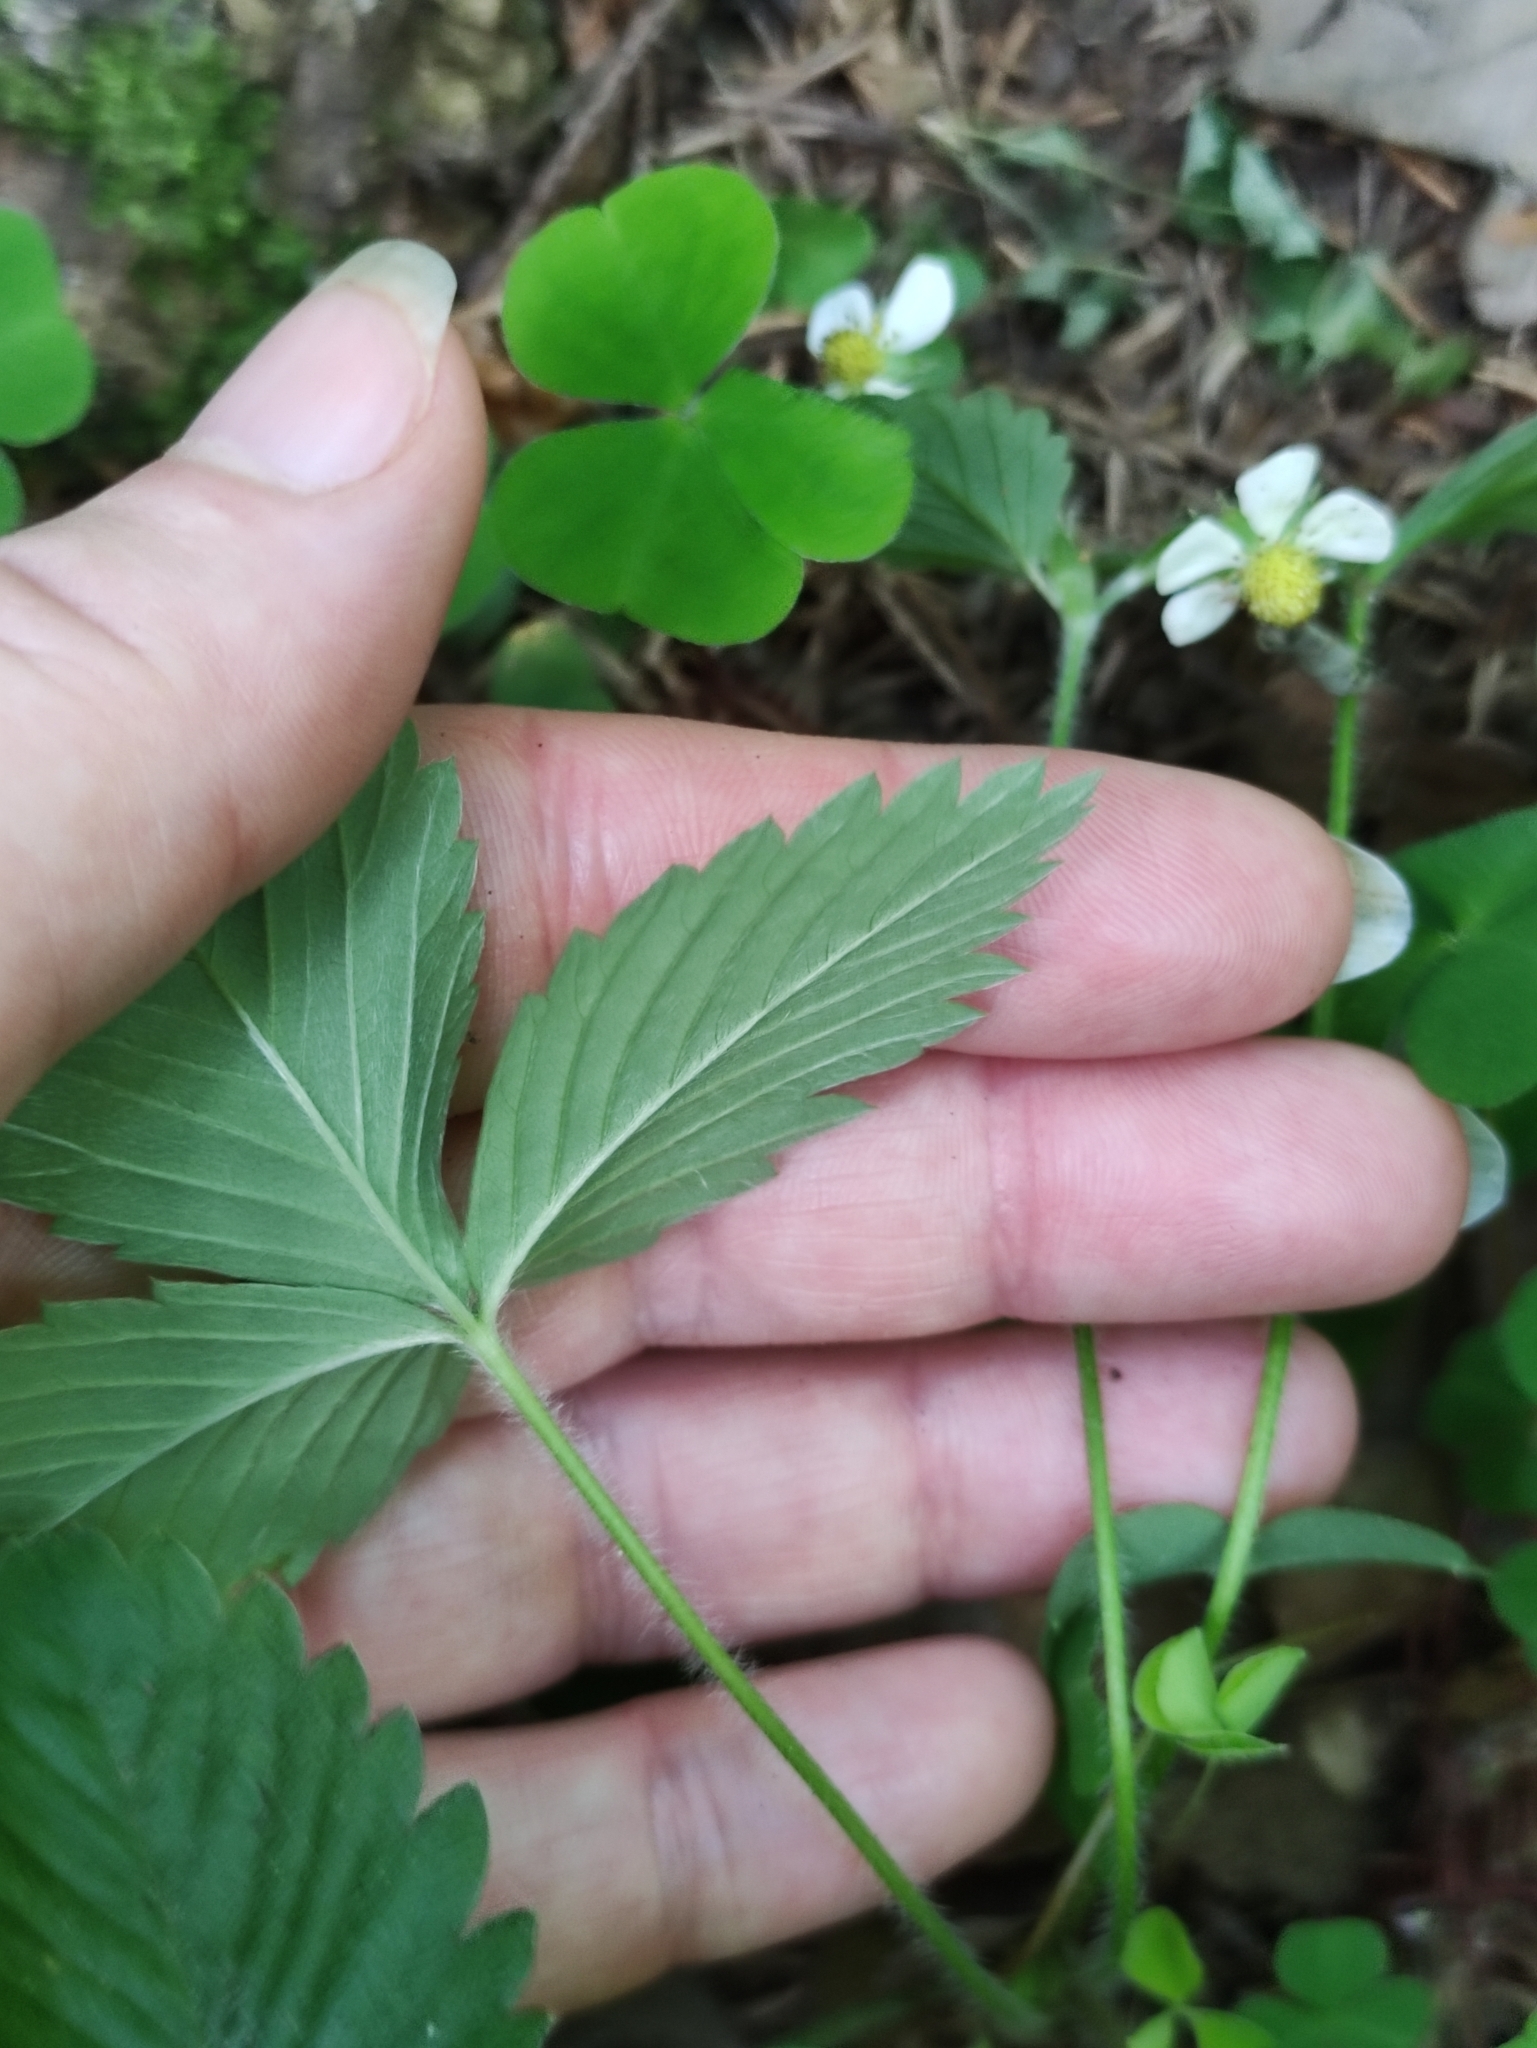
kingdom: Plantae
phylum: Tracheophyta
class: Magnoliopsida
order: Rosales
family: Rosaceae
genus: Fragaria
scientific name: Fragaria vesca
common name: Wild strawberry
